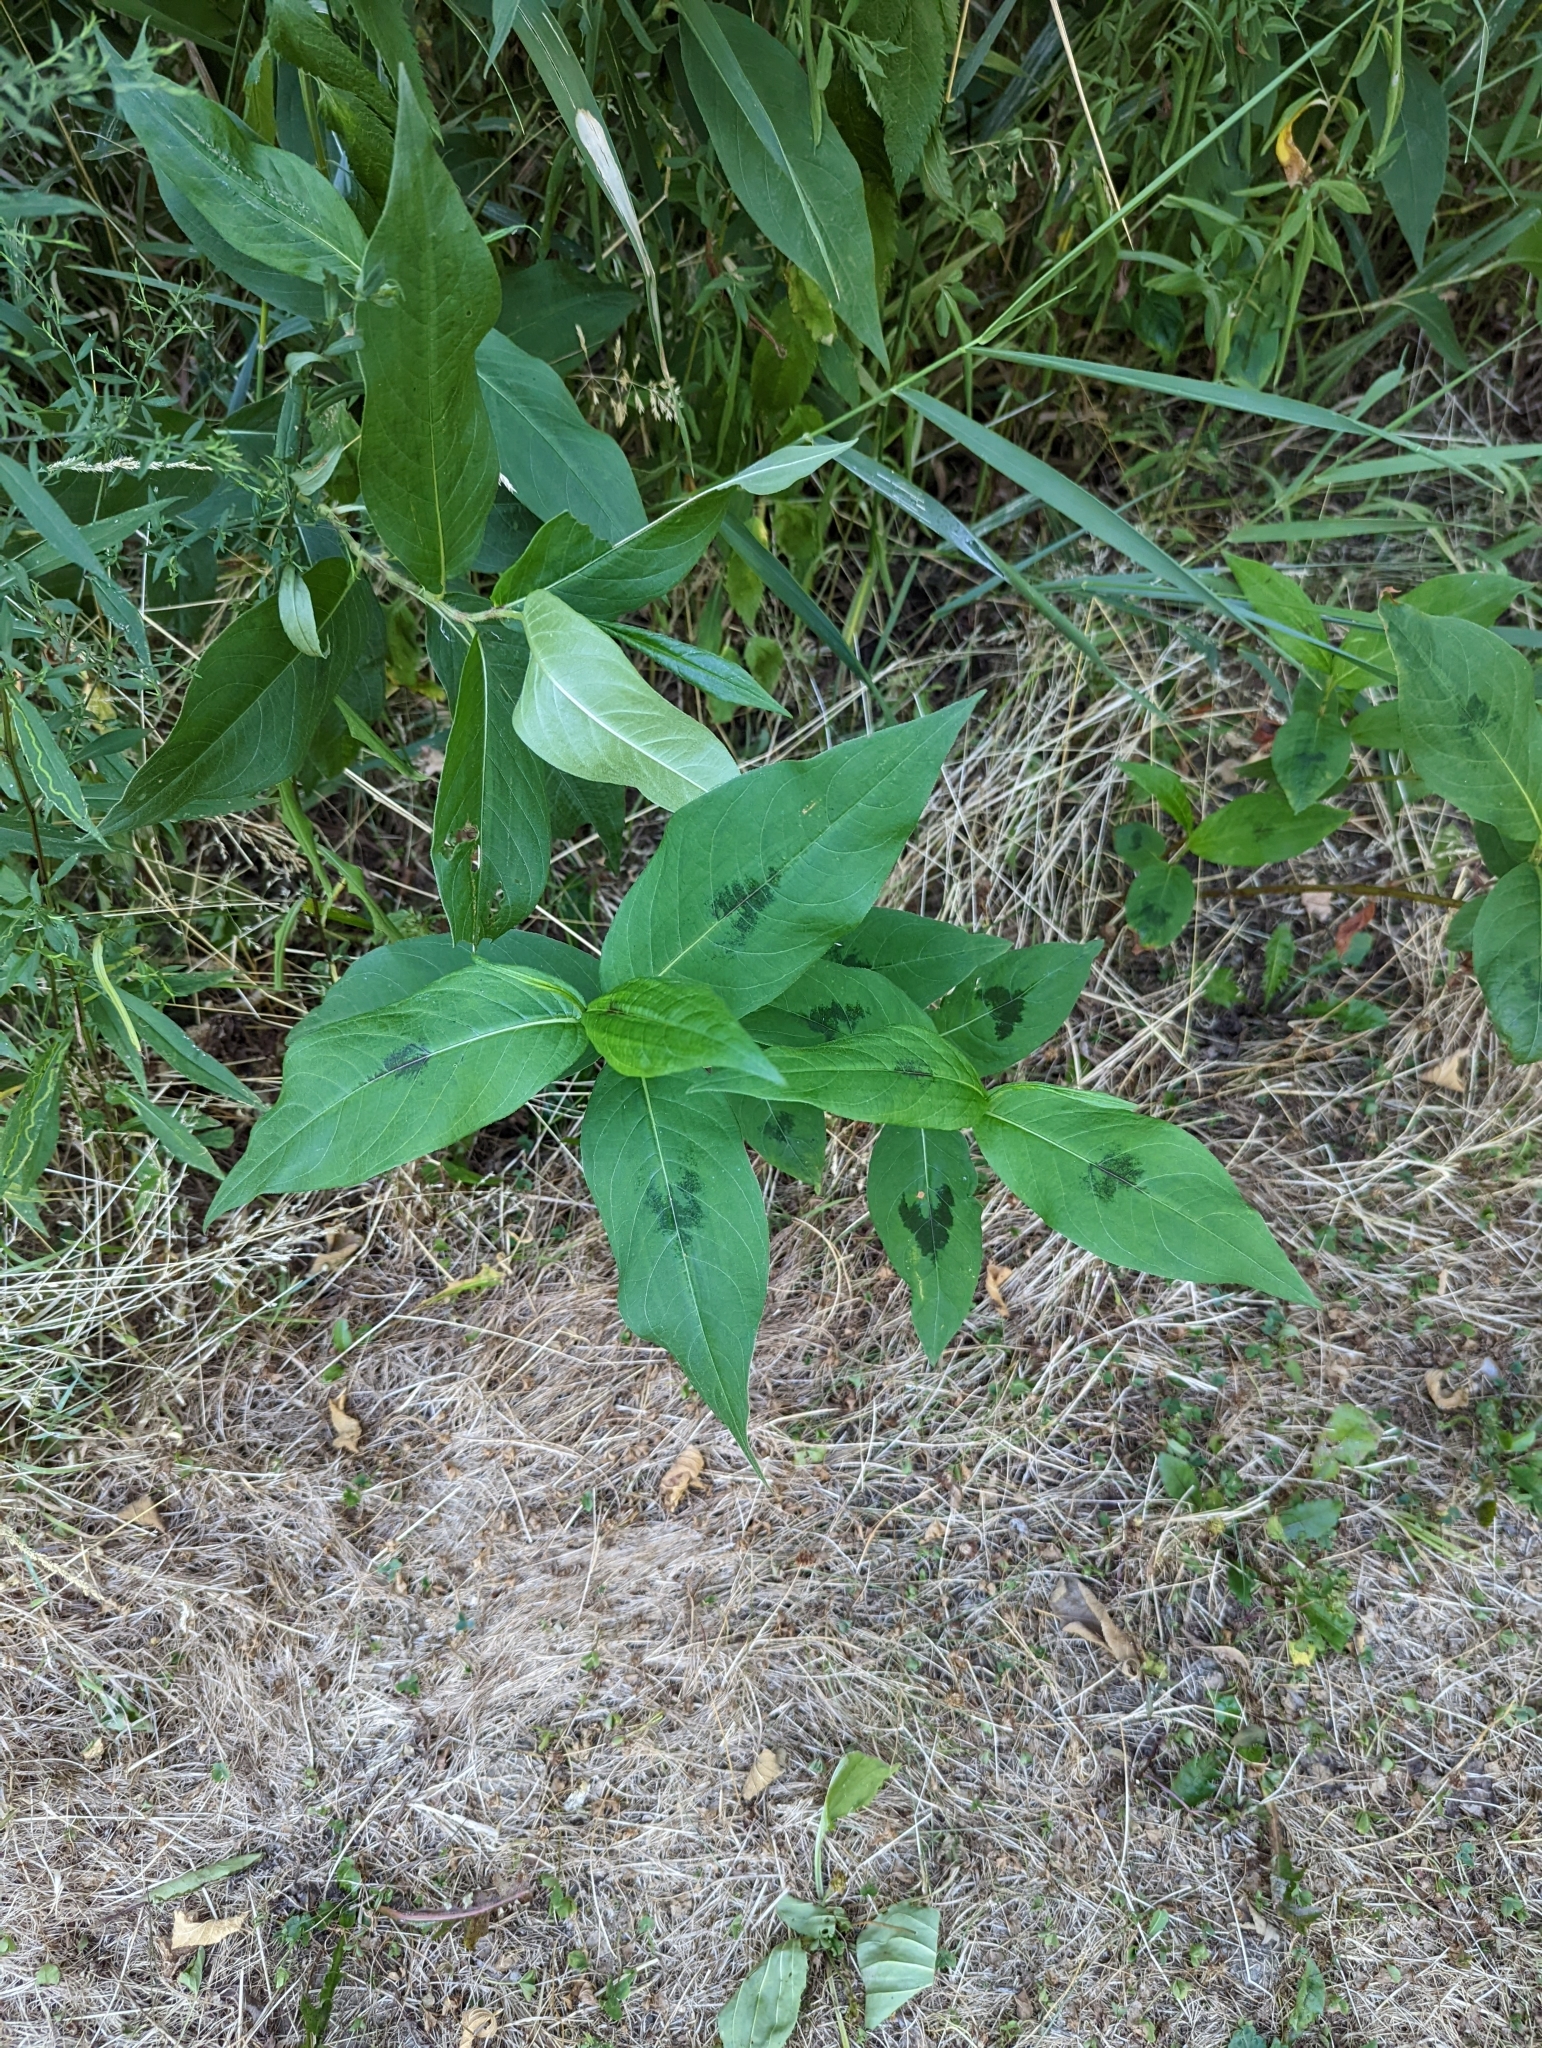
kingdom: Plantae
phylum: Tracheophyta
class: Magnoliopsida
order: Caryophyllales
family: Polygonaceae
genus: Persicaria
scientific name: Persicaria virginiana
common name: Jumpseed
